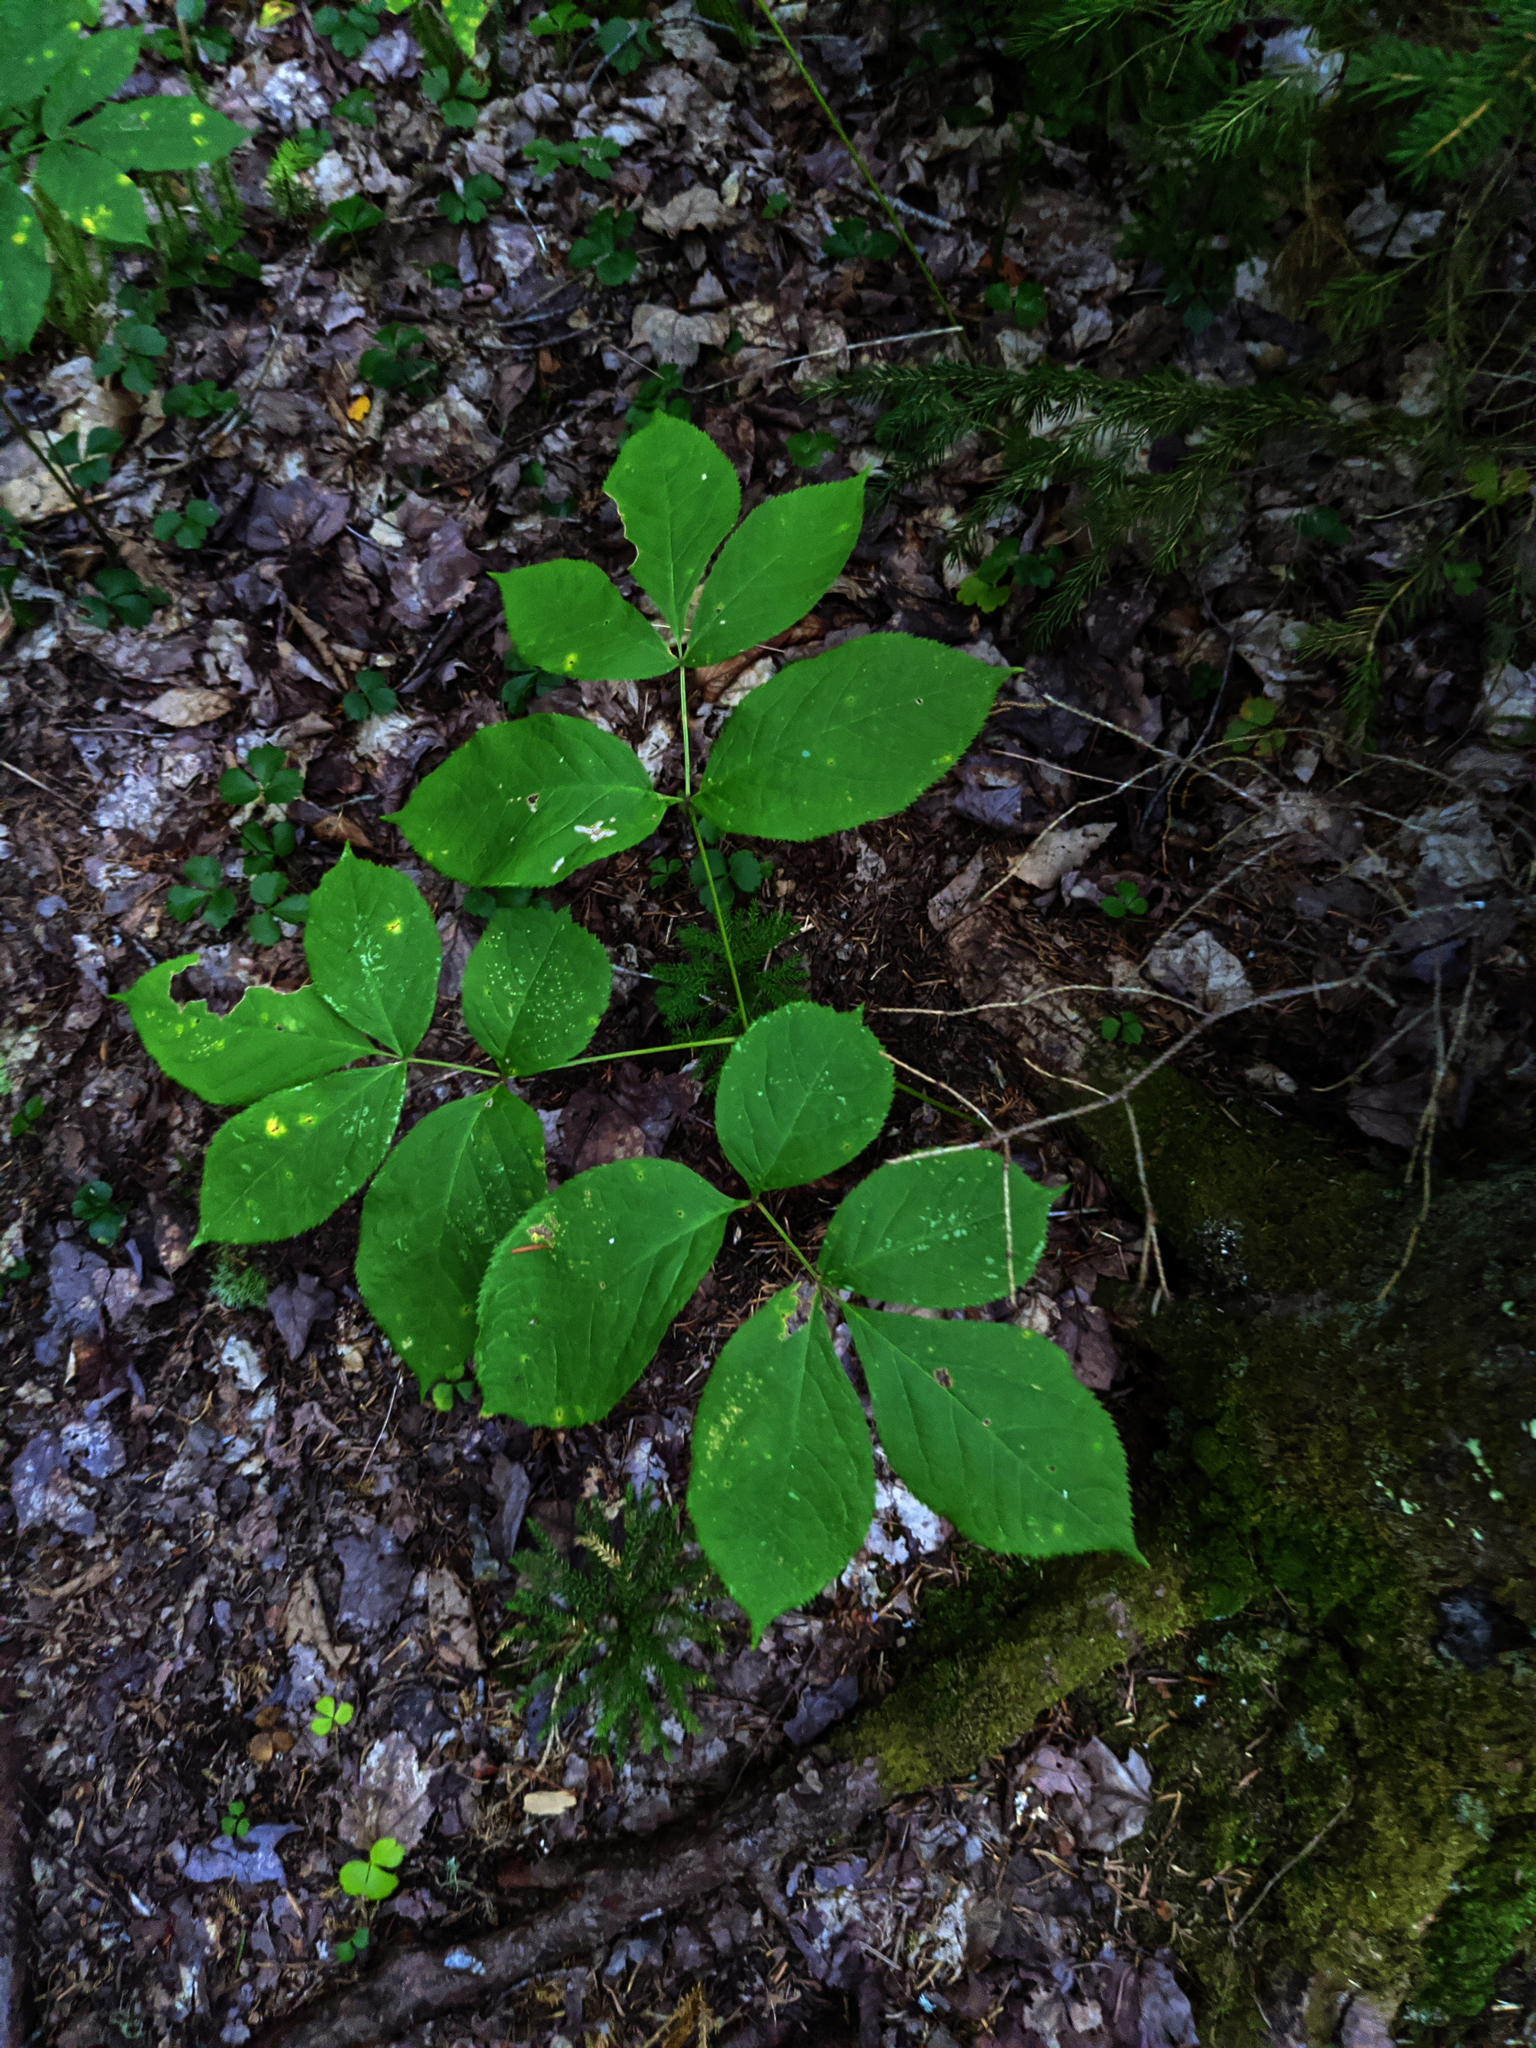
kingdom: Plantae
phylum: Tracheophyta
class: Magnoliopsida
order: Apiales
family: Araliaceae
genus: Aralia
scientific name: Aralia nudicaulis
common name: Wild sarsaparilla
